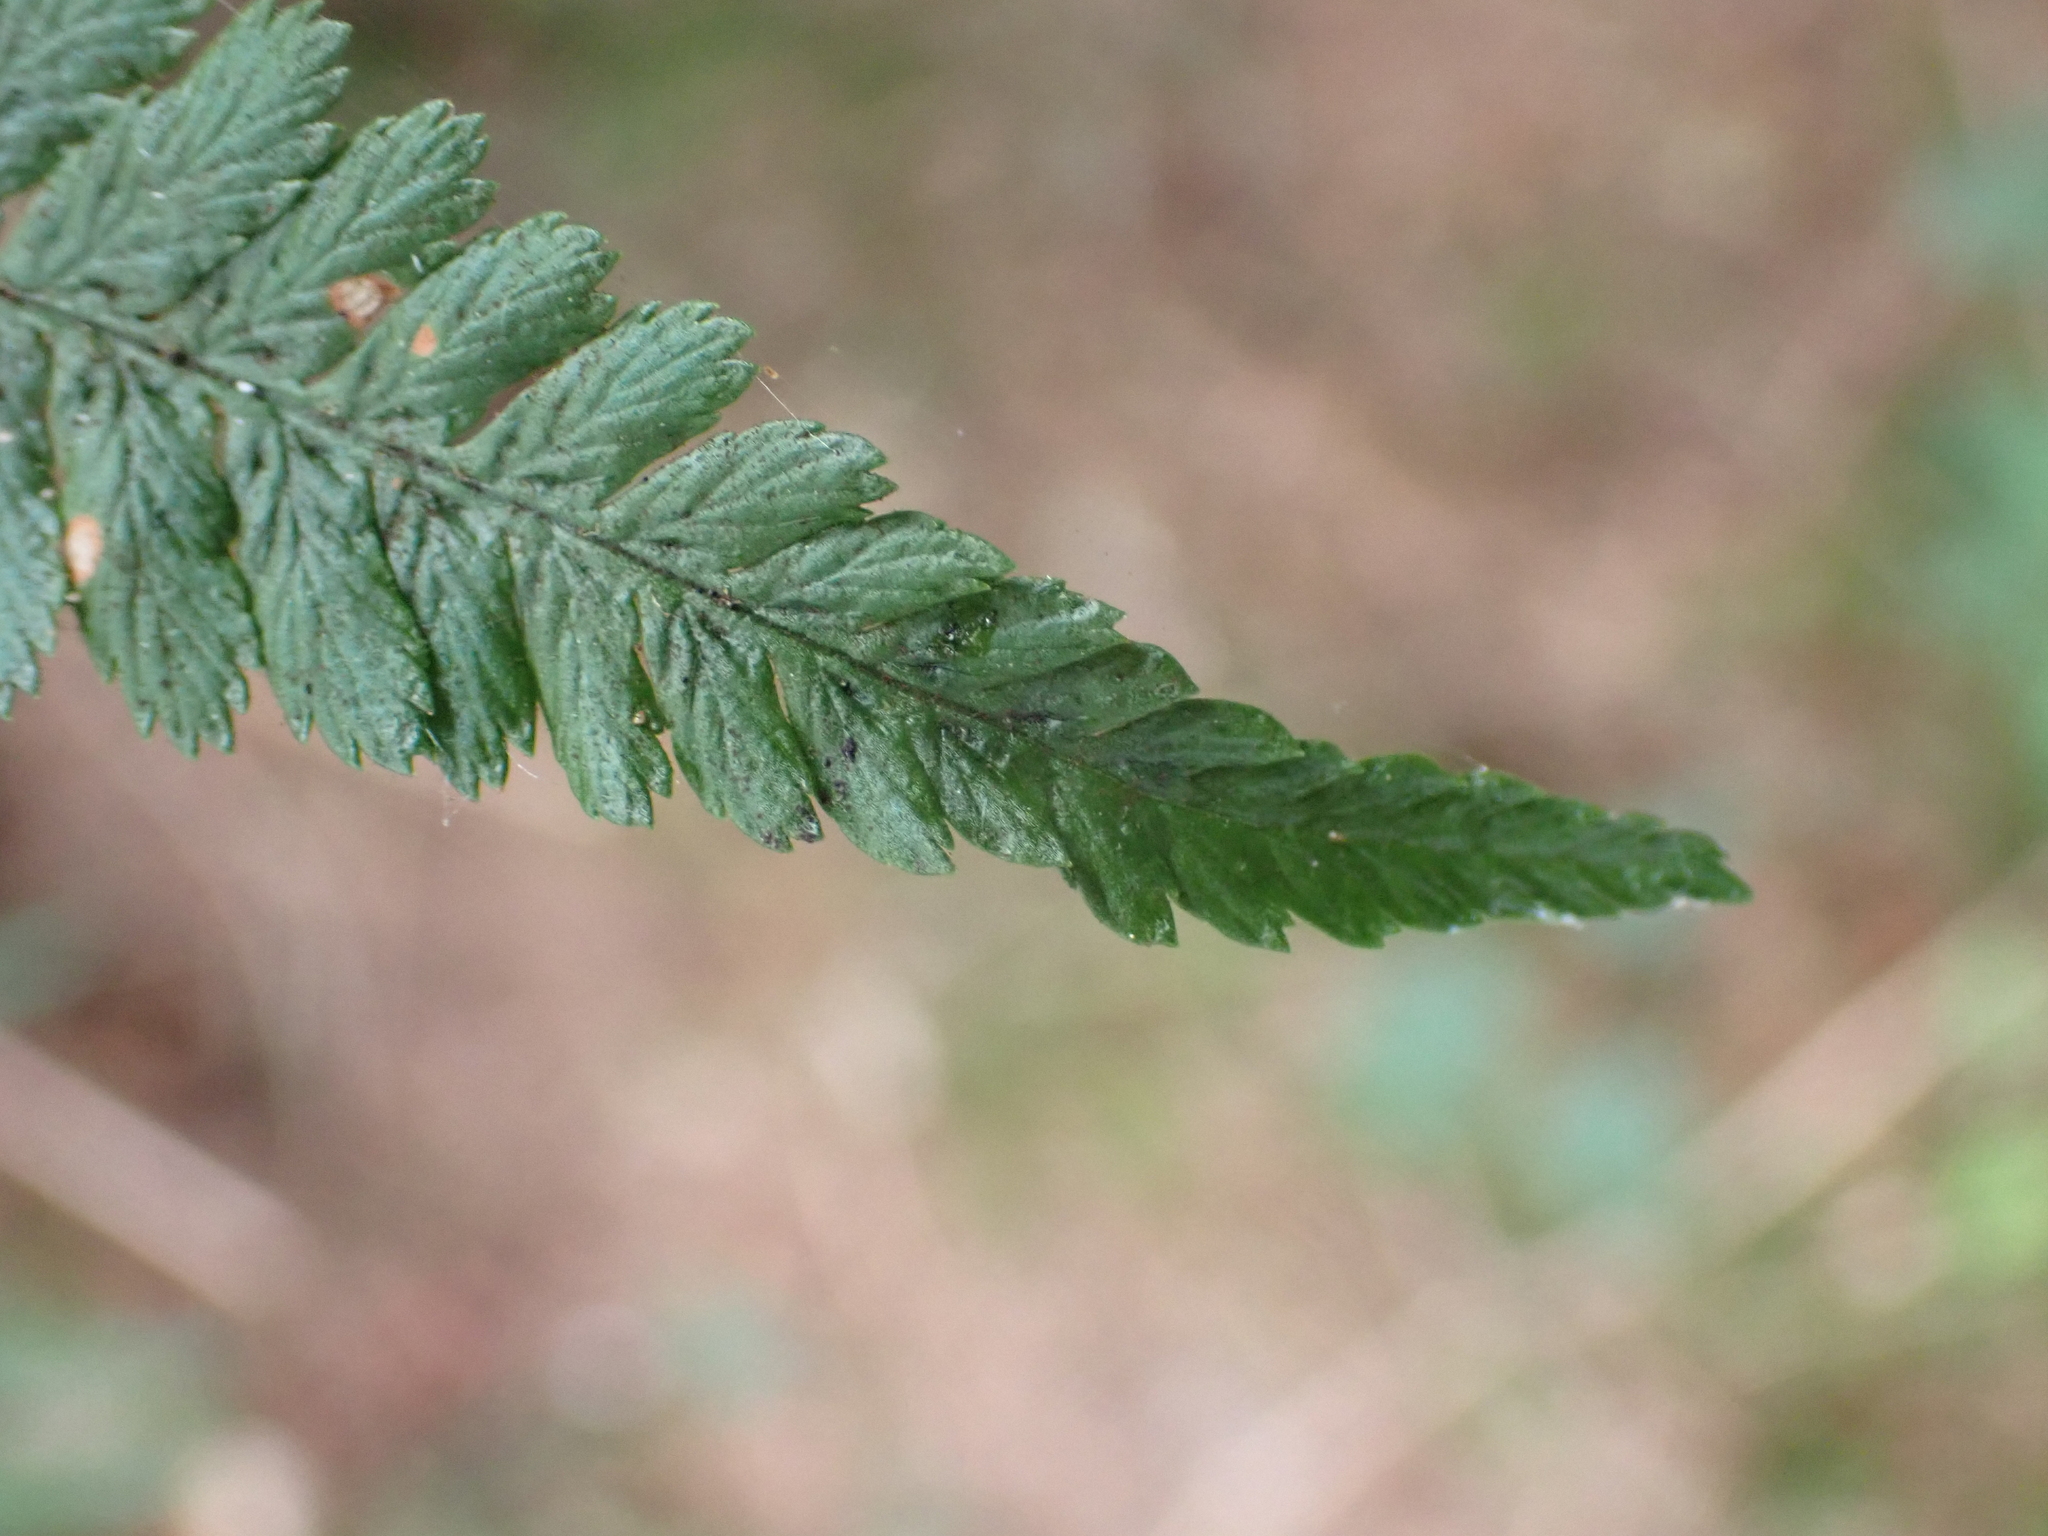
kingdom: Plantae
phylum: Tracheophyta
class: Polypodiopsida
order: Polypodiales
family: Dryopteridaceae
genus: Dryopteris
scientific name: Dryopteris filix-mas
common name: Male fern
